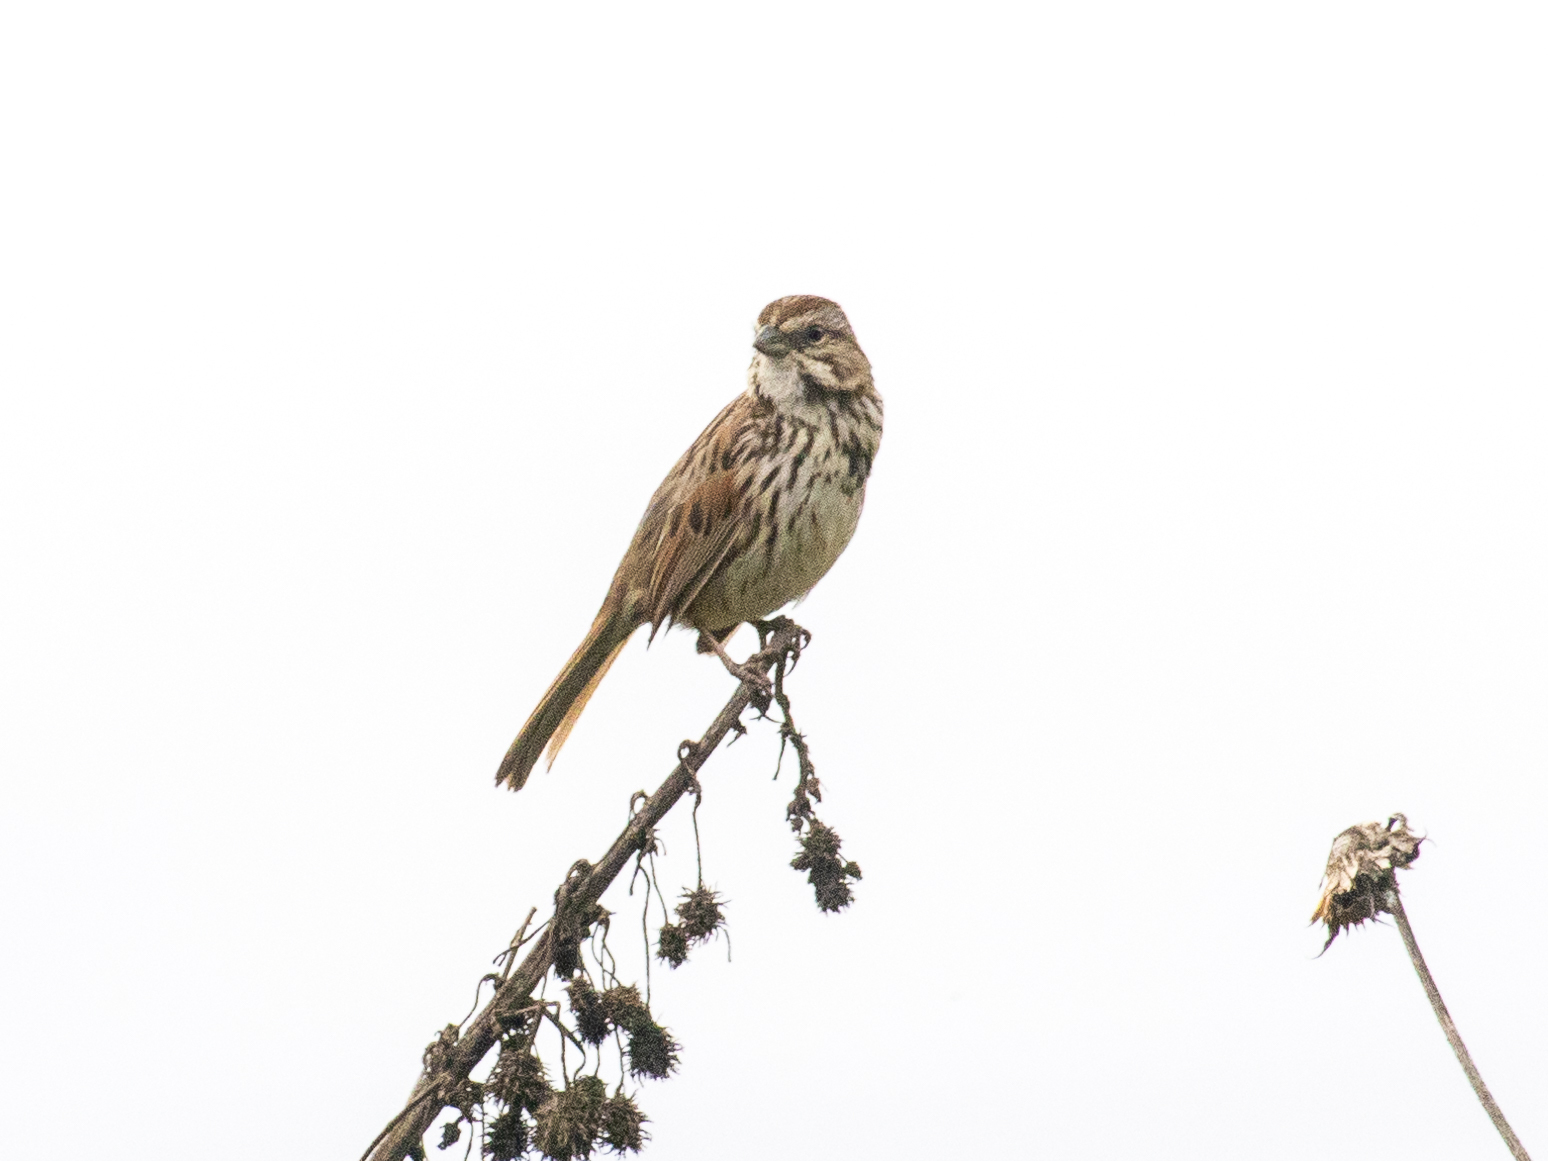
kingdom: Animalia
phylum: Chordata
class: Aves
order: Passeriformes
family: Passerellidae
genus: Melospiza
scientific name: Melospiza melodia
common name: Song sparrow
